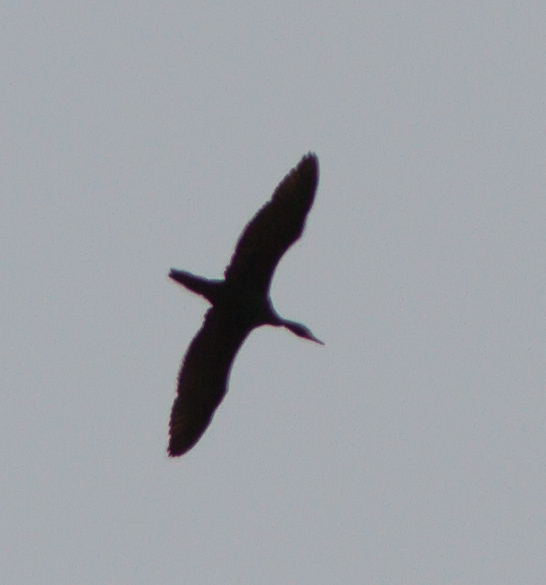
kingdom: Animalia
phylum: Chordata
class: Aves
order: Suliformes
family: Phalacrocoracidae
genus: Phalacrocorax
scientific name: Phalacrocorax auritus
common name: Double-crested cormorant
